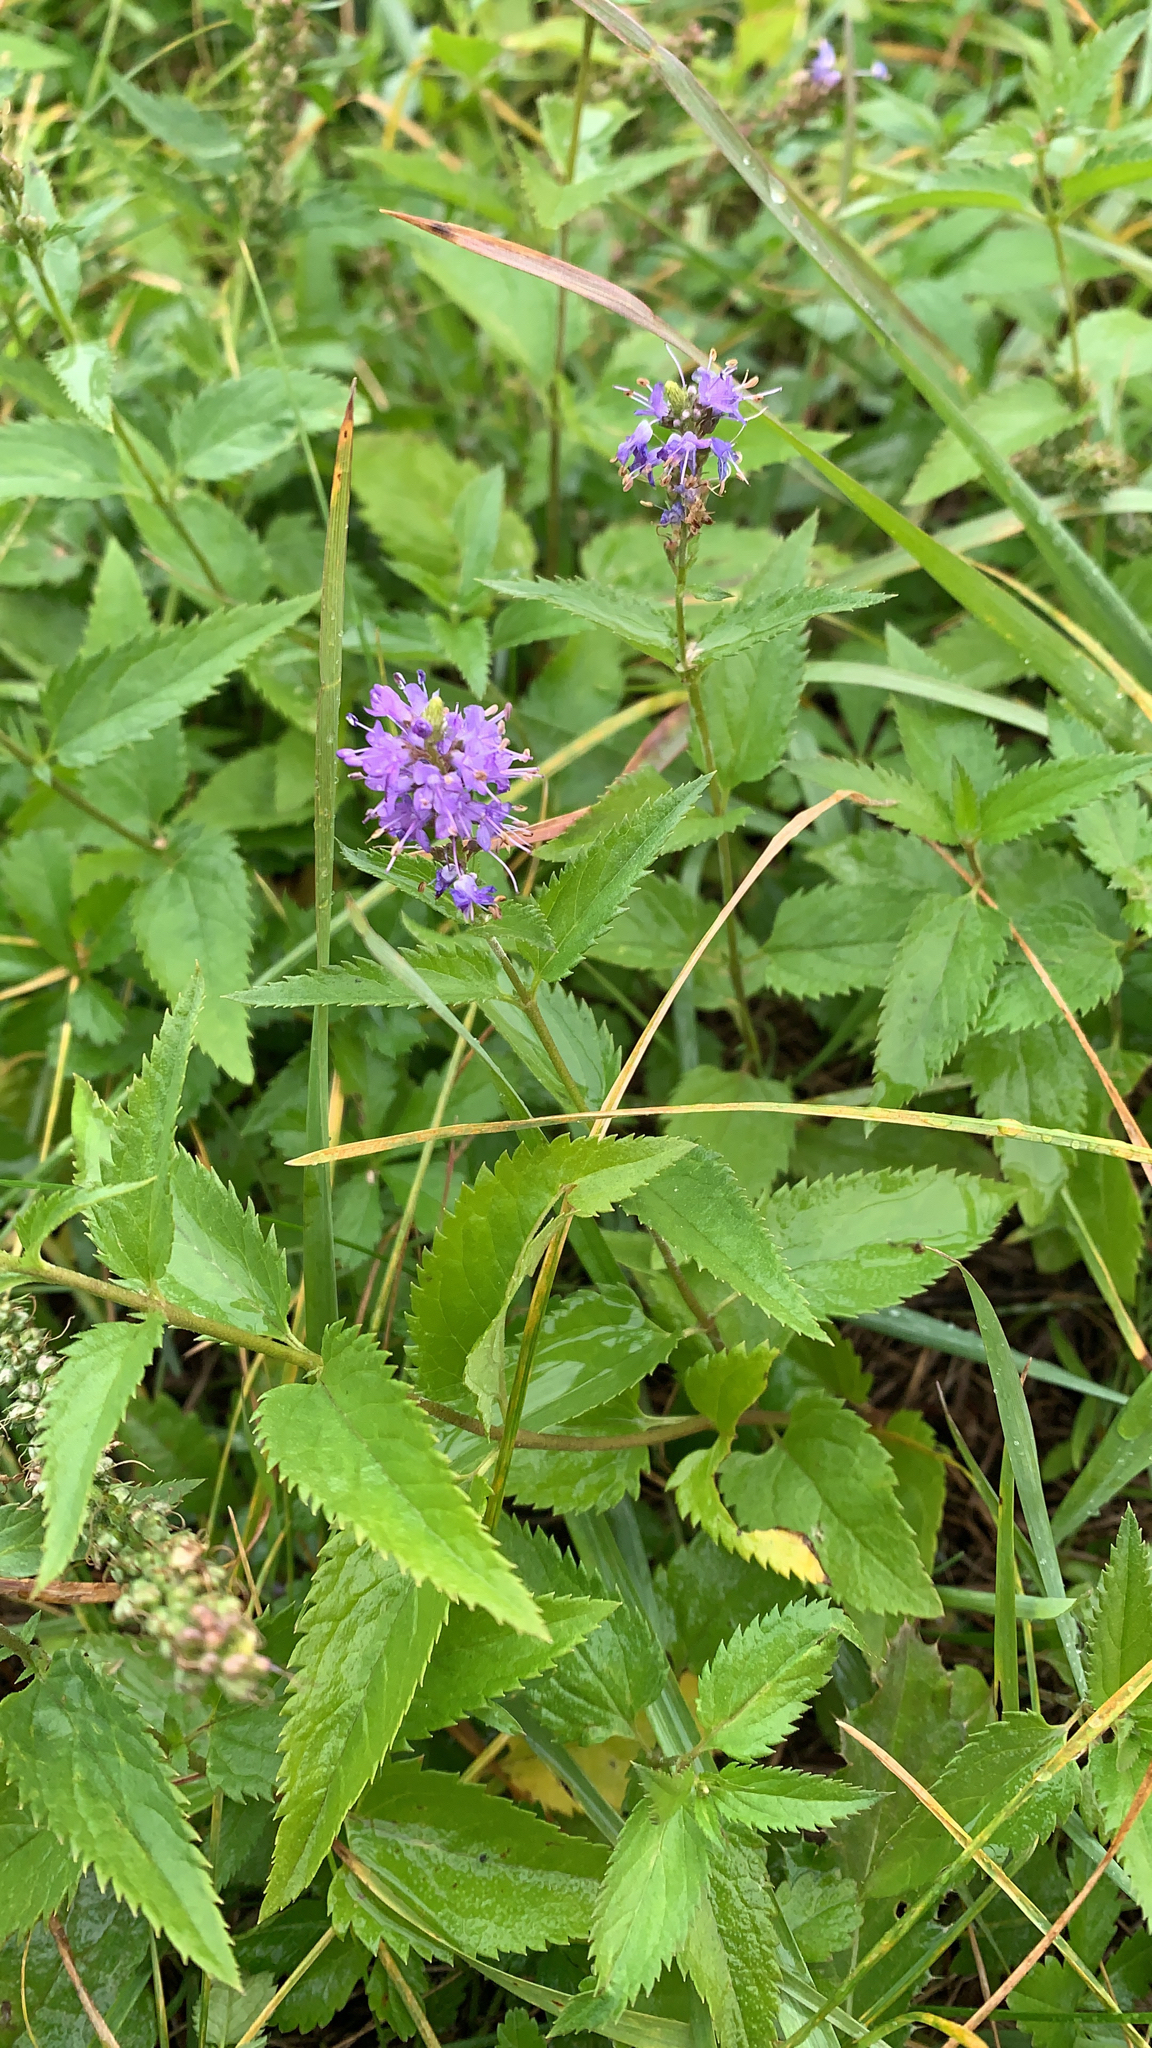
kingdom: Plantae
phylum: Tracheophyta
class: Magnoliopsida
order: Lamiales
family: Plantaginaceae
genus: Veronica
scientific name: Veronica longifolia
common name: Garden speedwell
